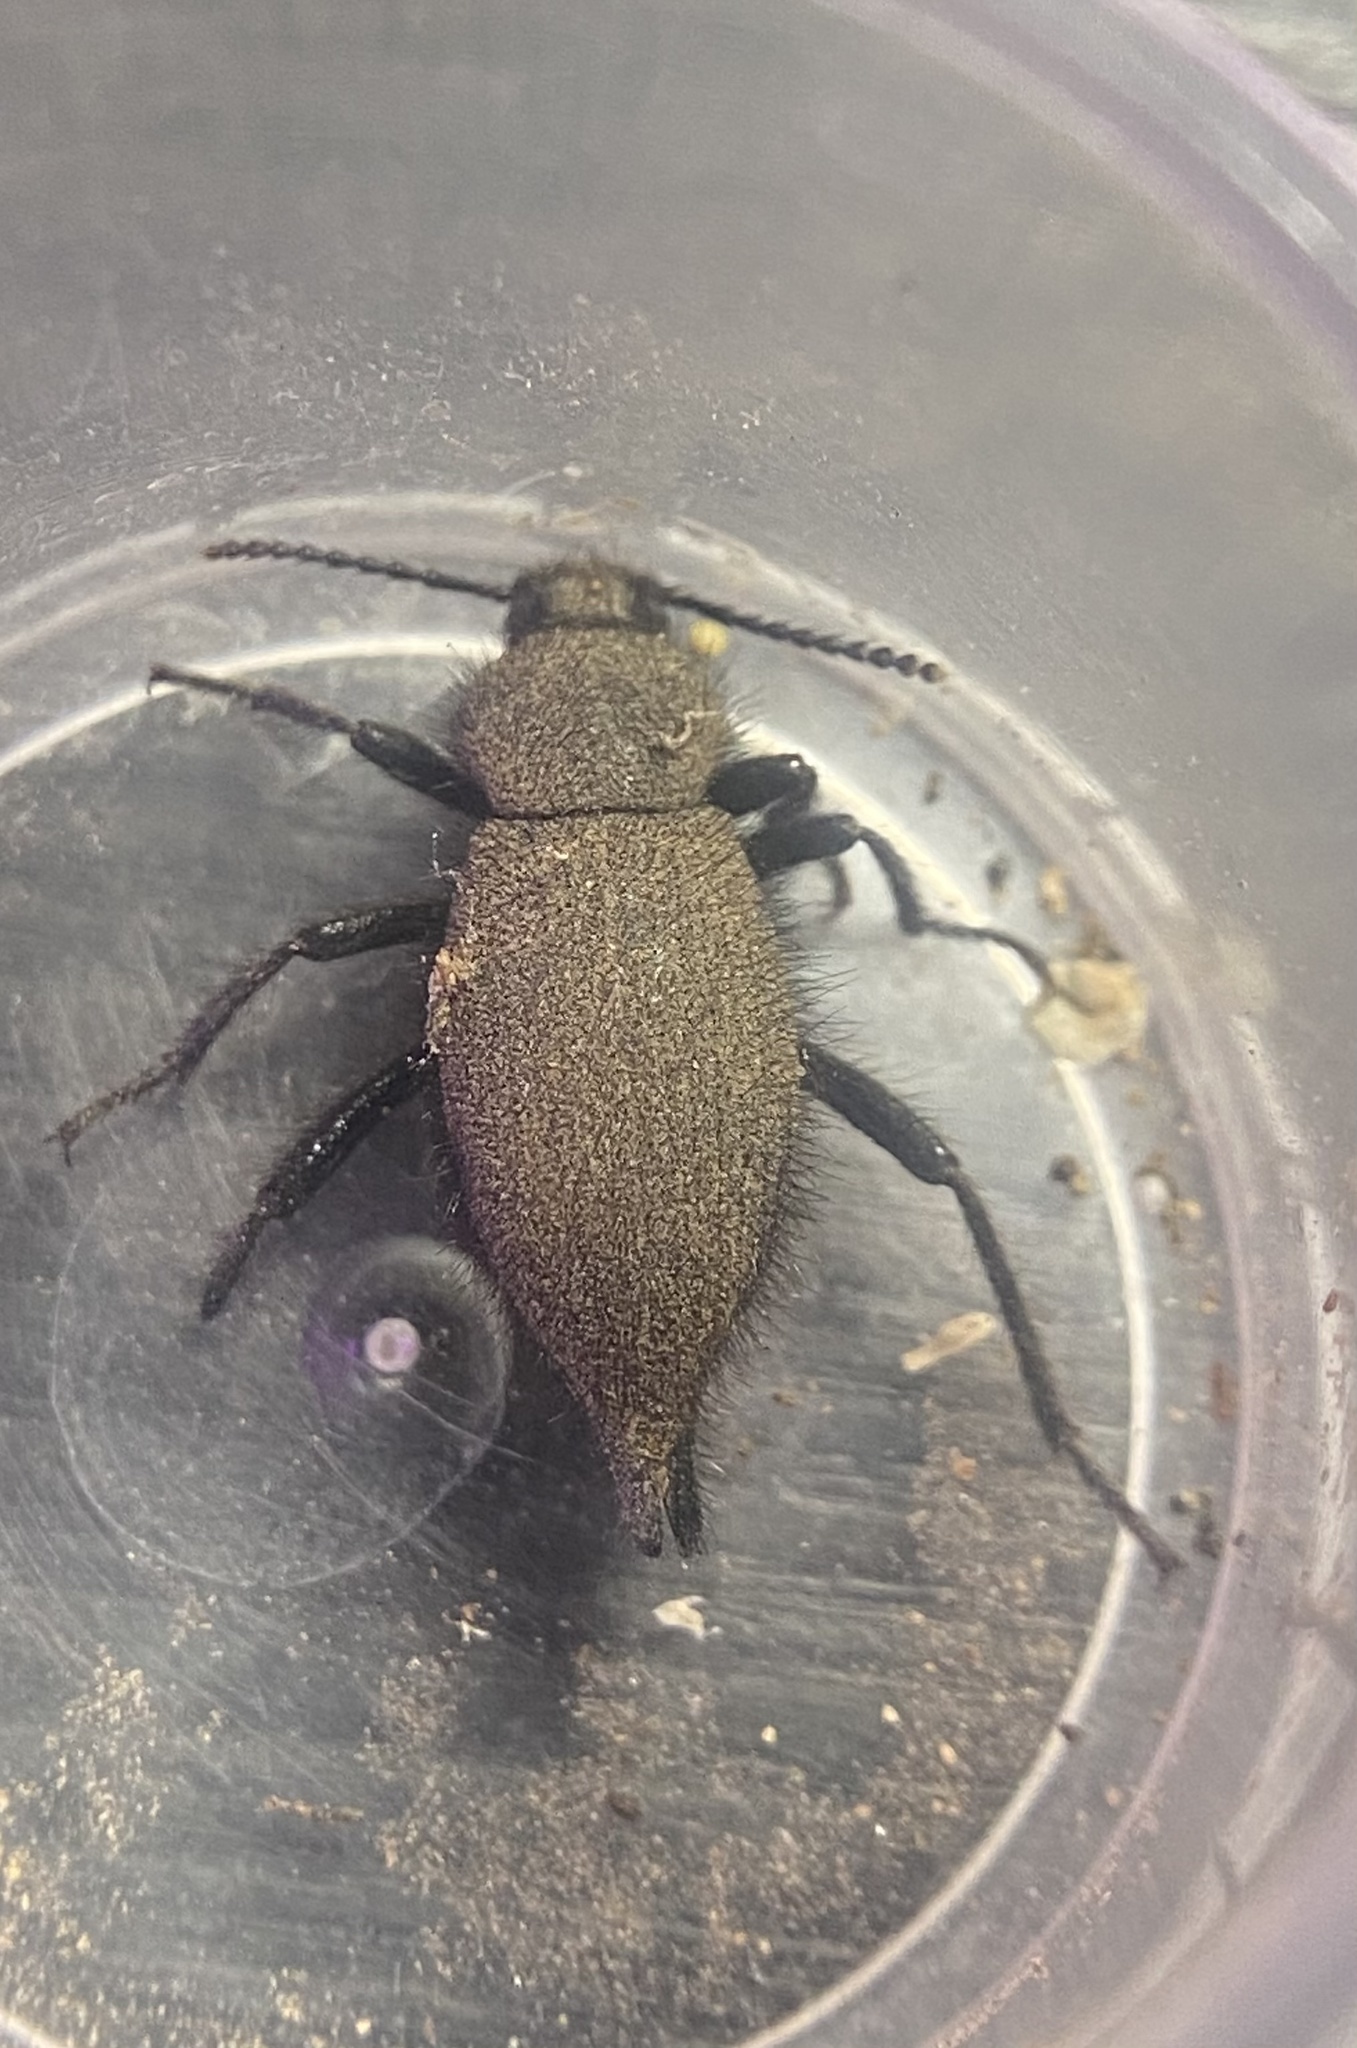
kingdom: Animalia
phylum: Arthropoda
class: Insecta
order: Coleoptera
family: Tenebrionidae
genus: Eleodes
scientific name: Eleodes tribulus
